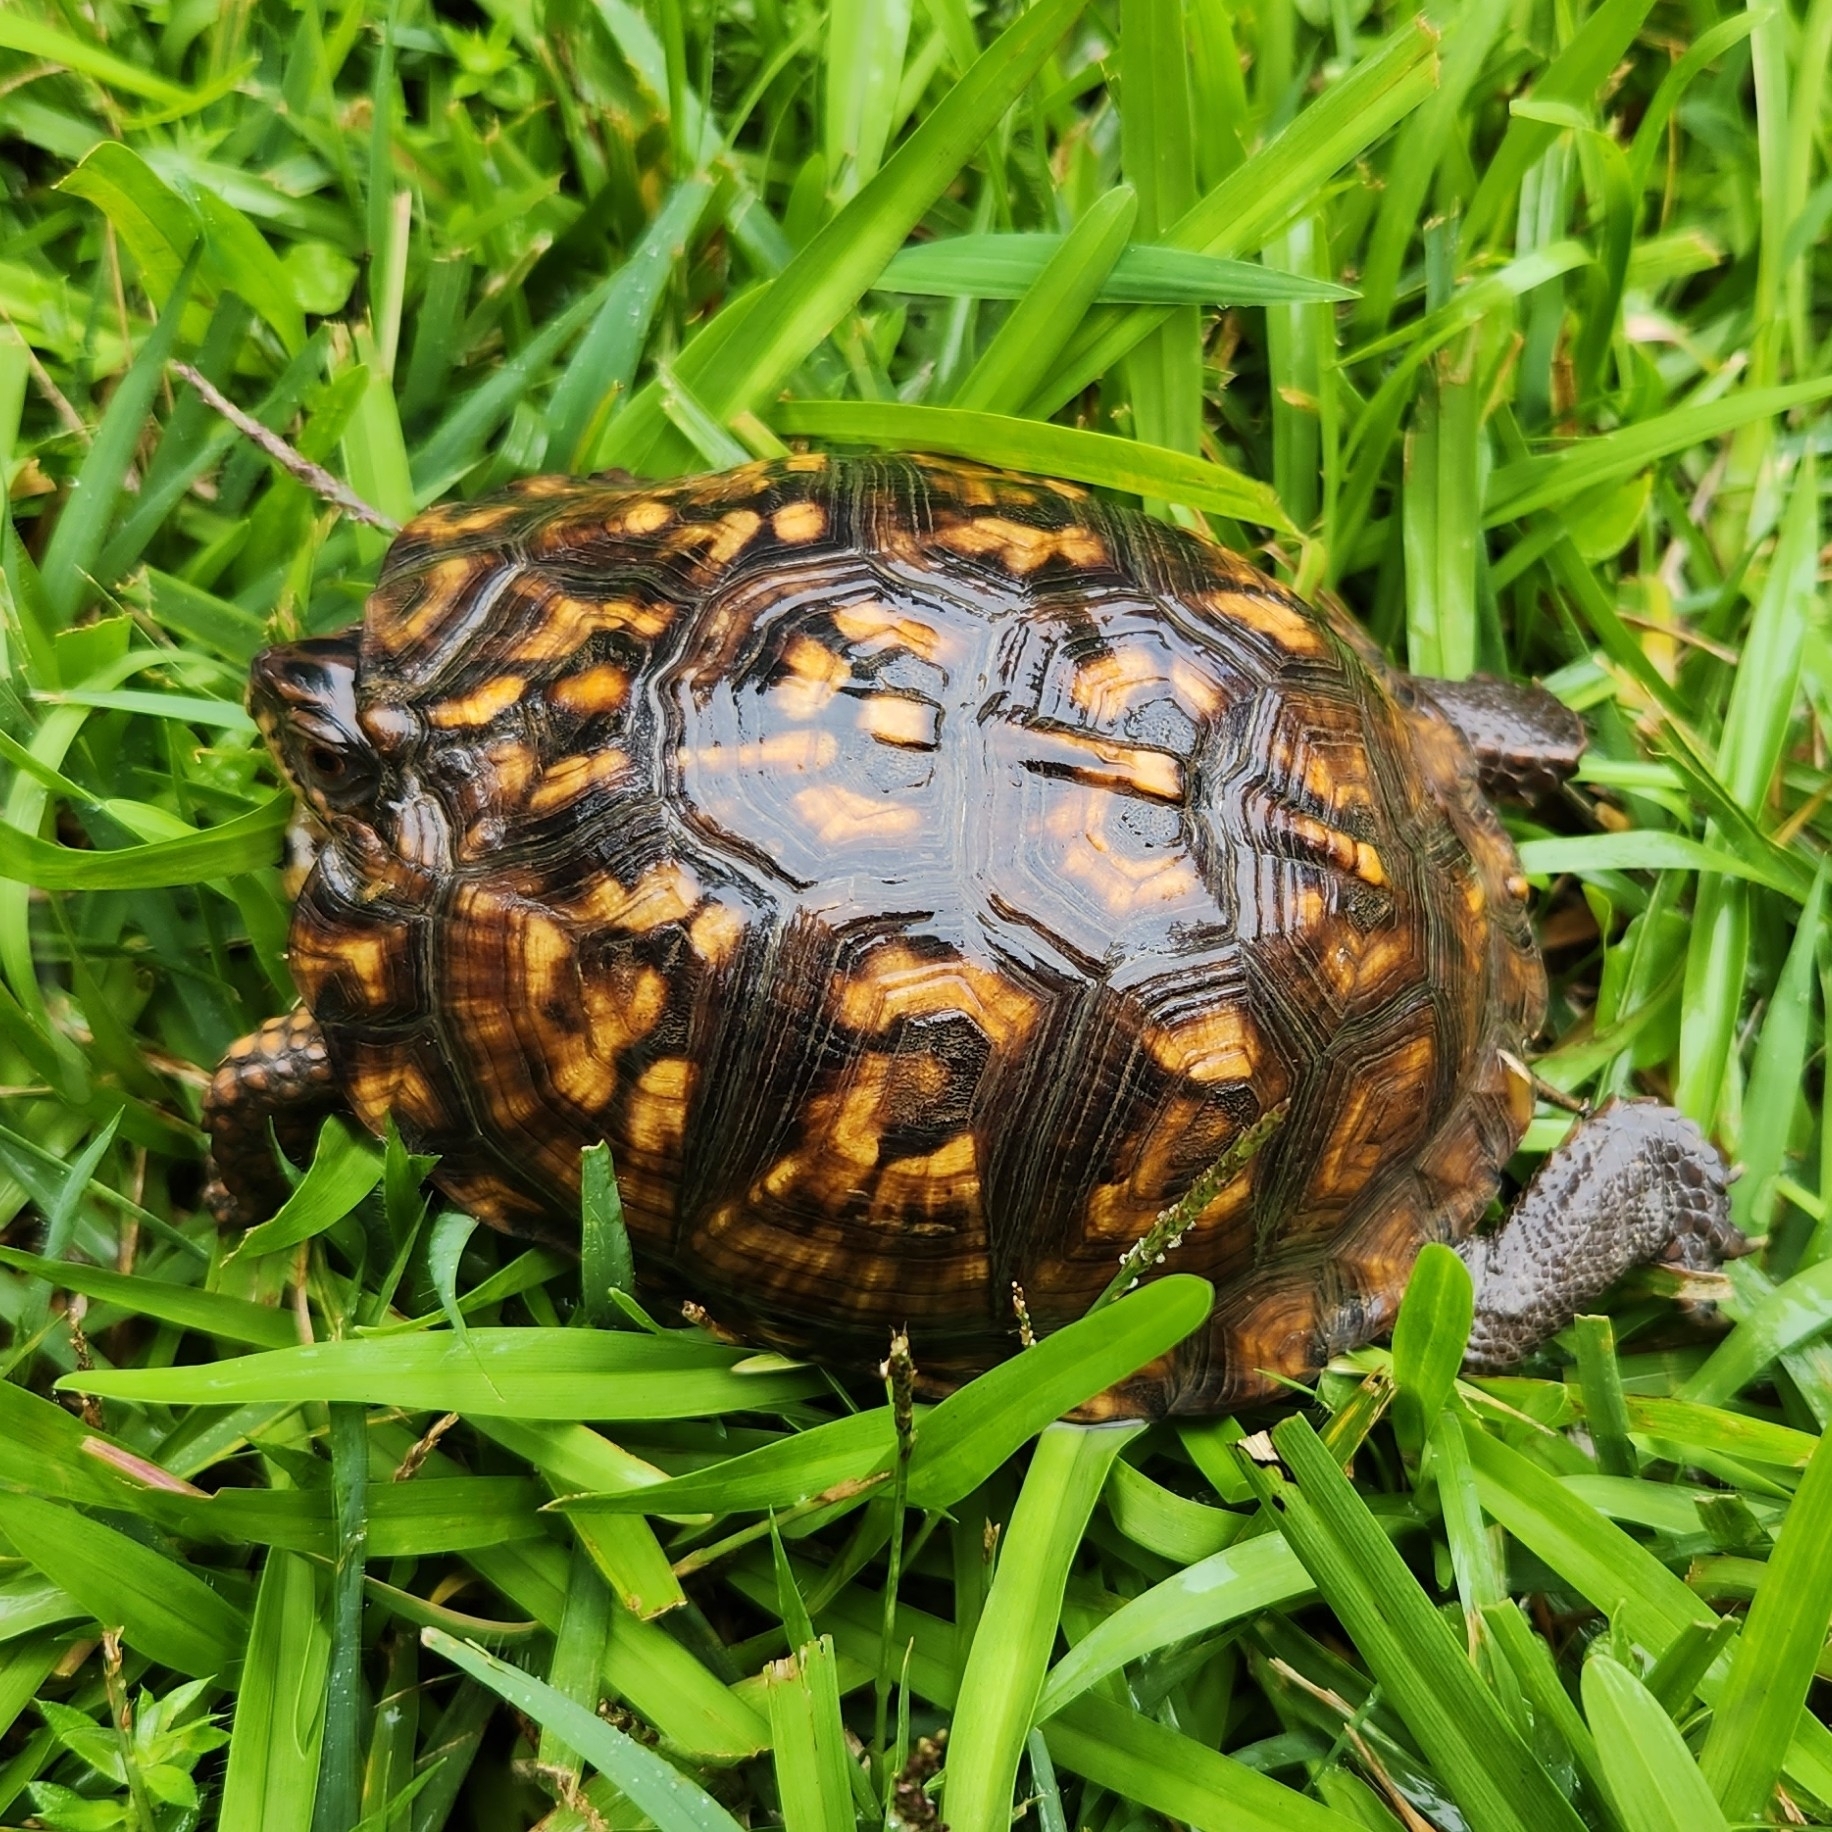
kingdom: Animalia
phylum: Chordata
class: Testudines
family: Emydidae
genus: Terrapene
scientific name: Terrapene carolina
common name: Common box turtle
